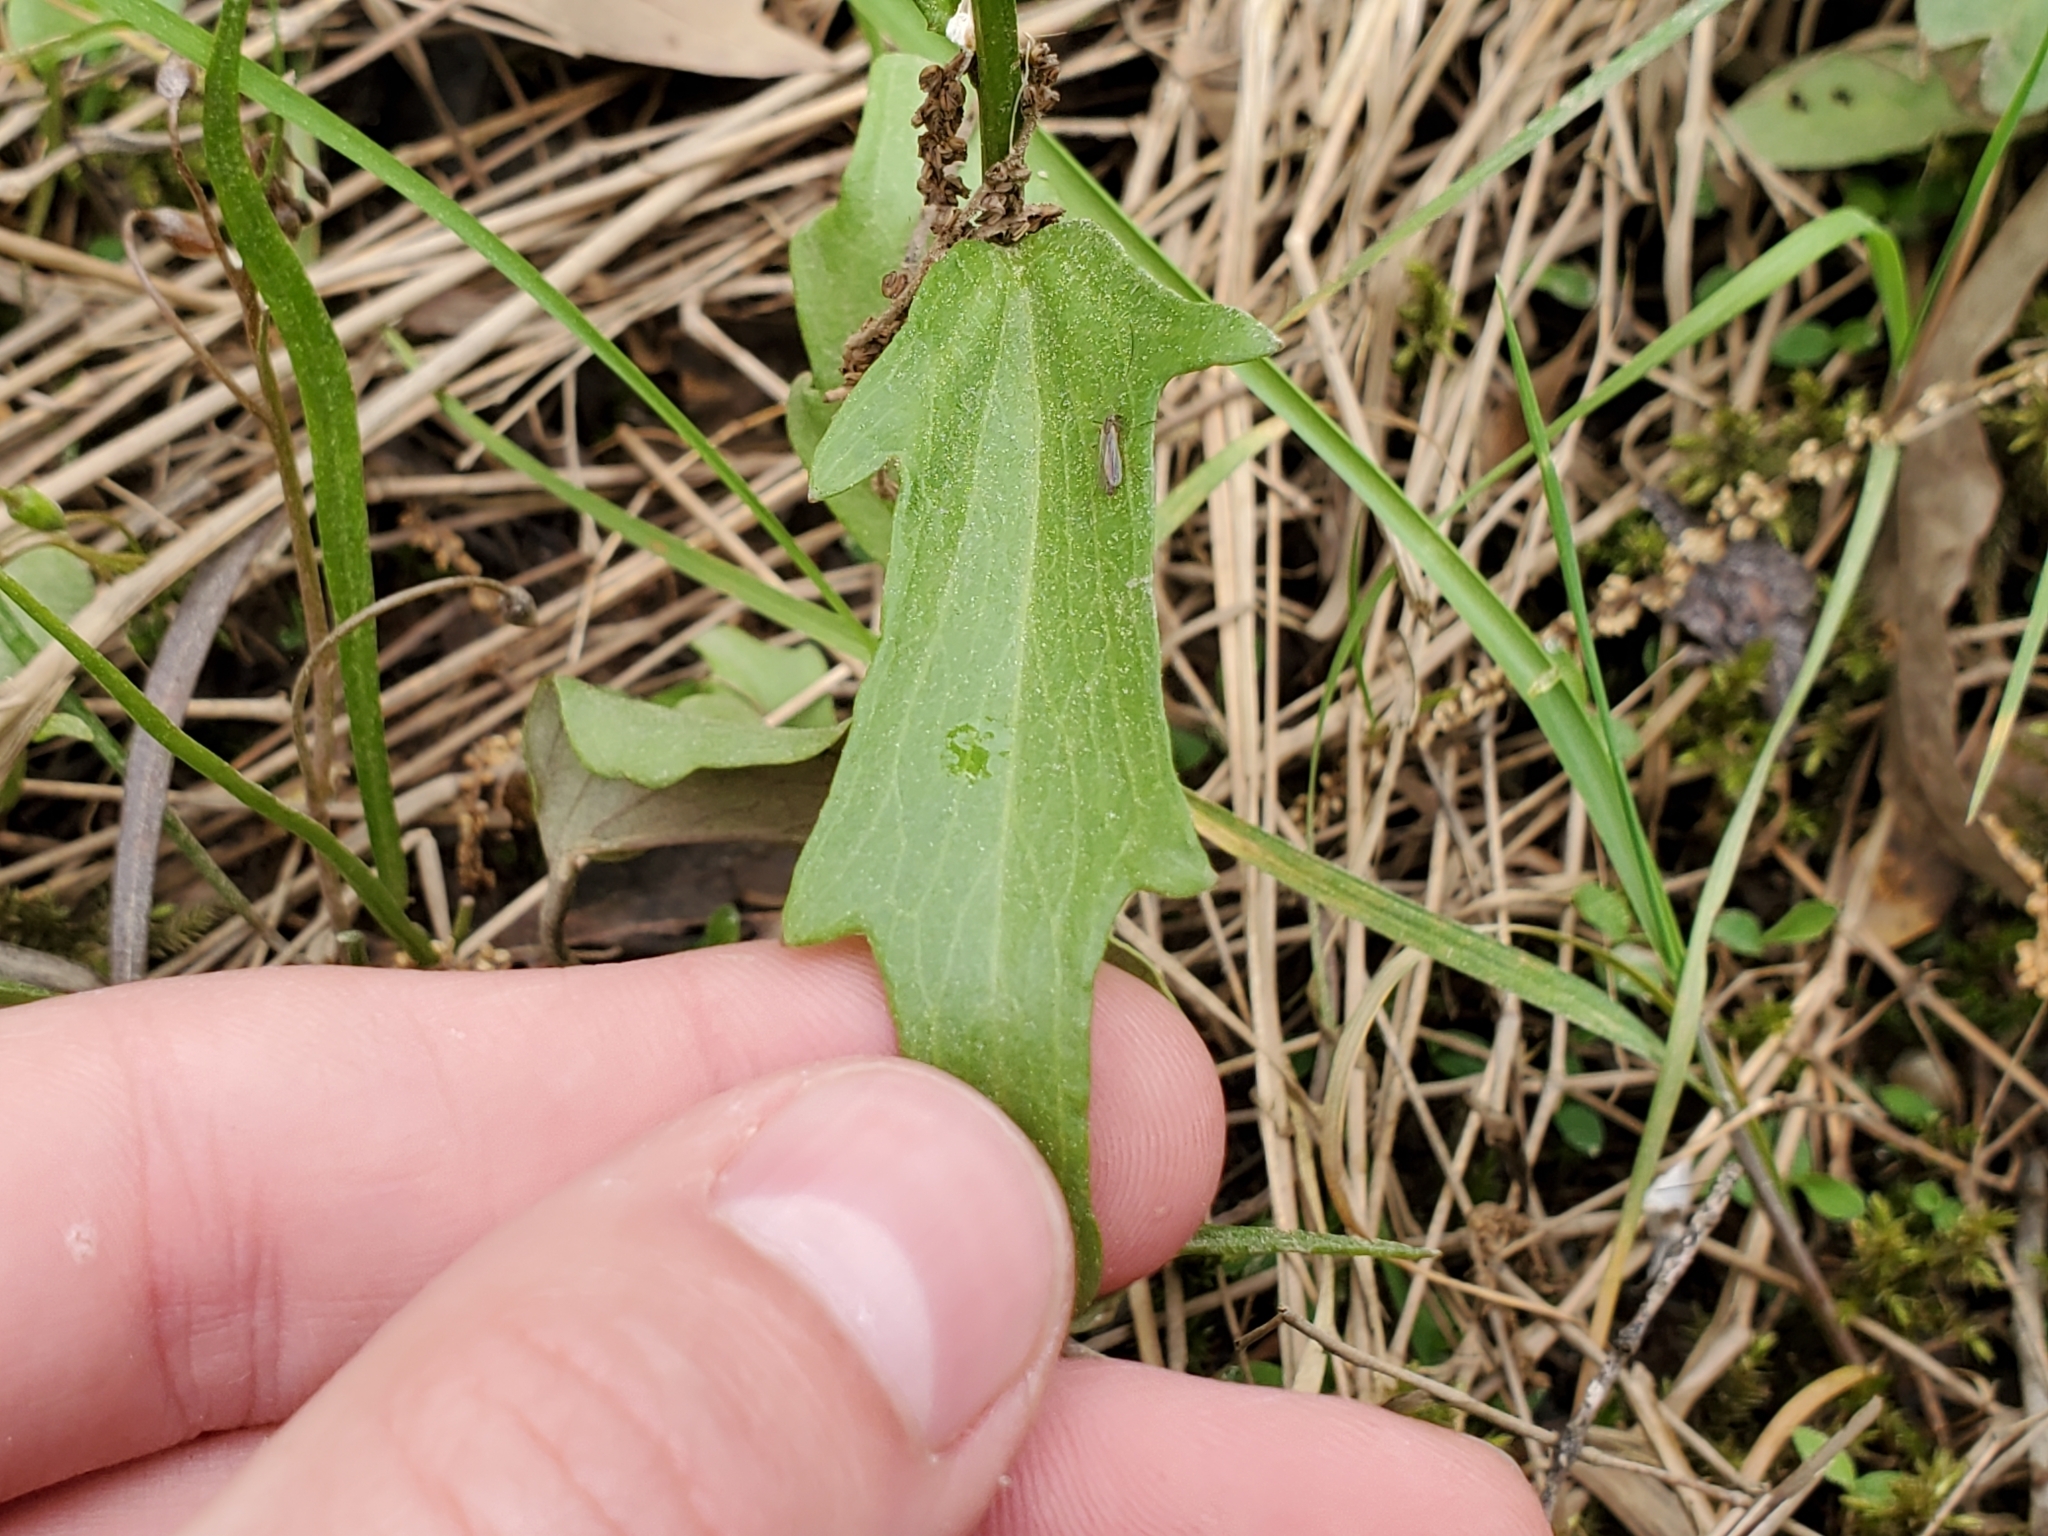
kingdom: Plantae
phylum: Tracheophyta
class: Magnoliopsida
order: Brassicales
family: Brassicaceae
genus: Cardamine
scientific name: Cardamine bulbosa
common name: Spring cress
